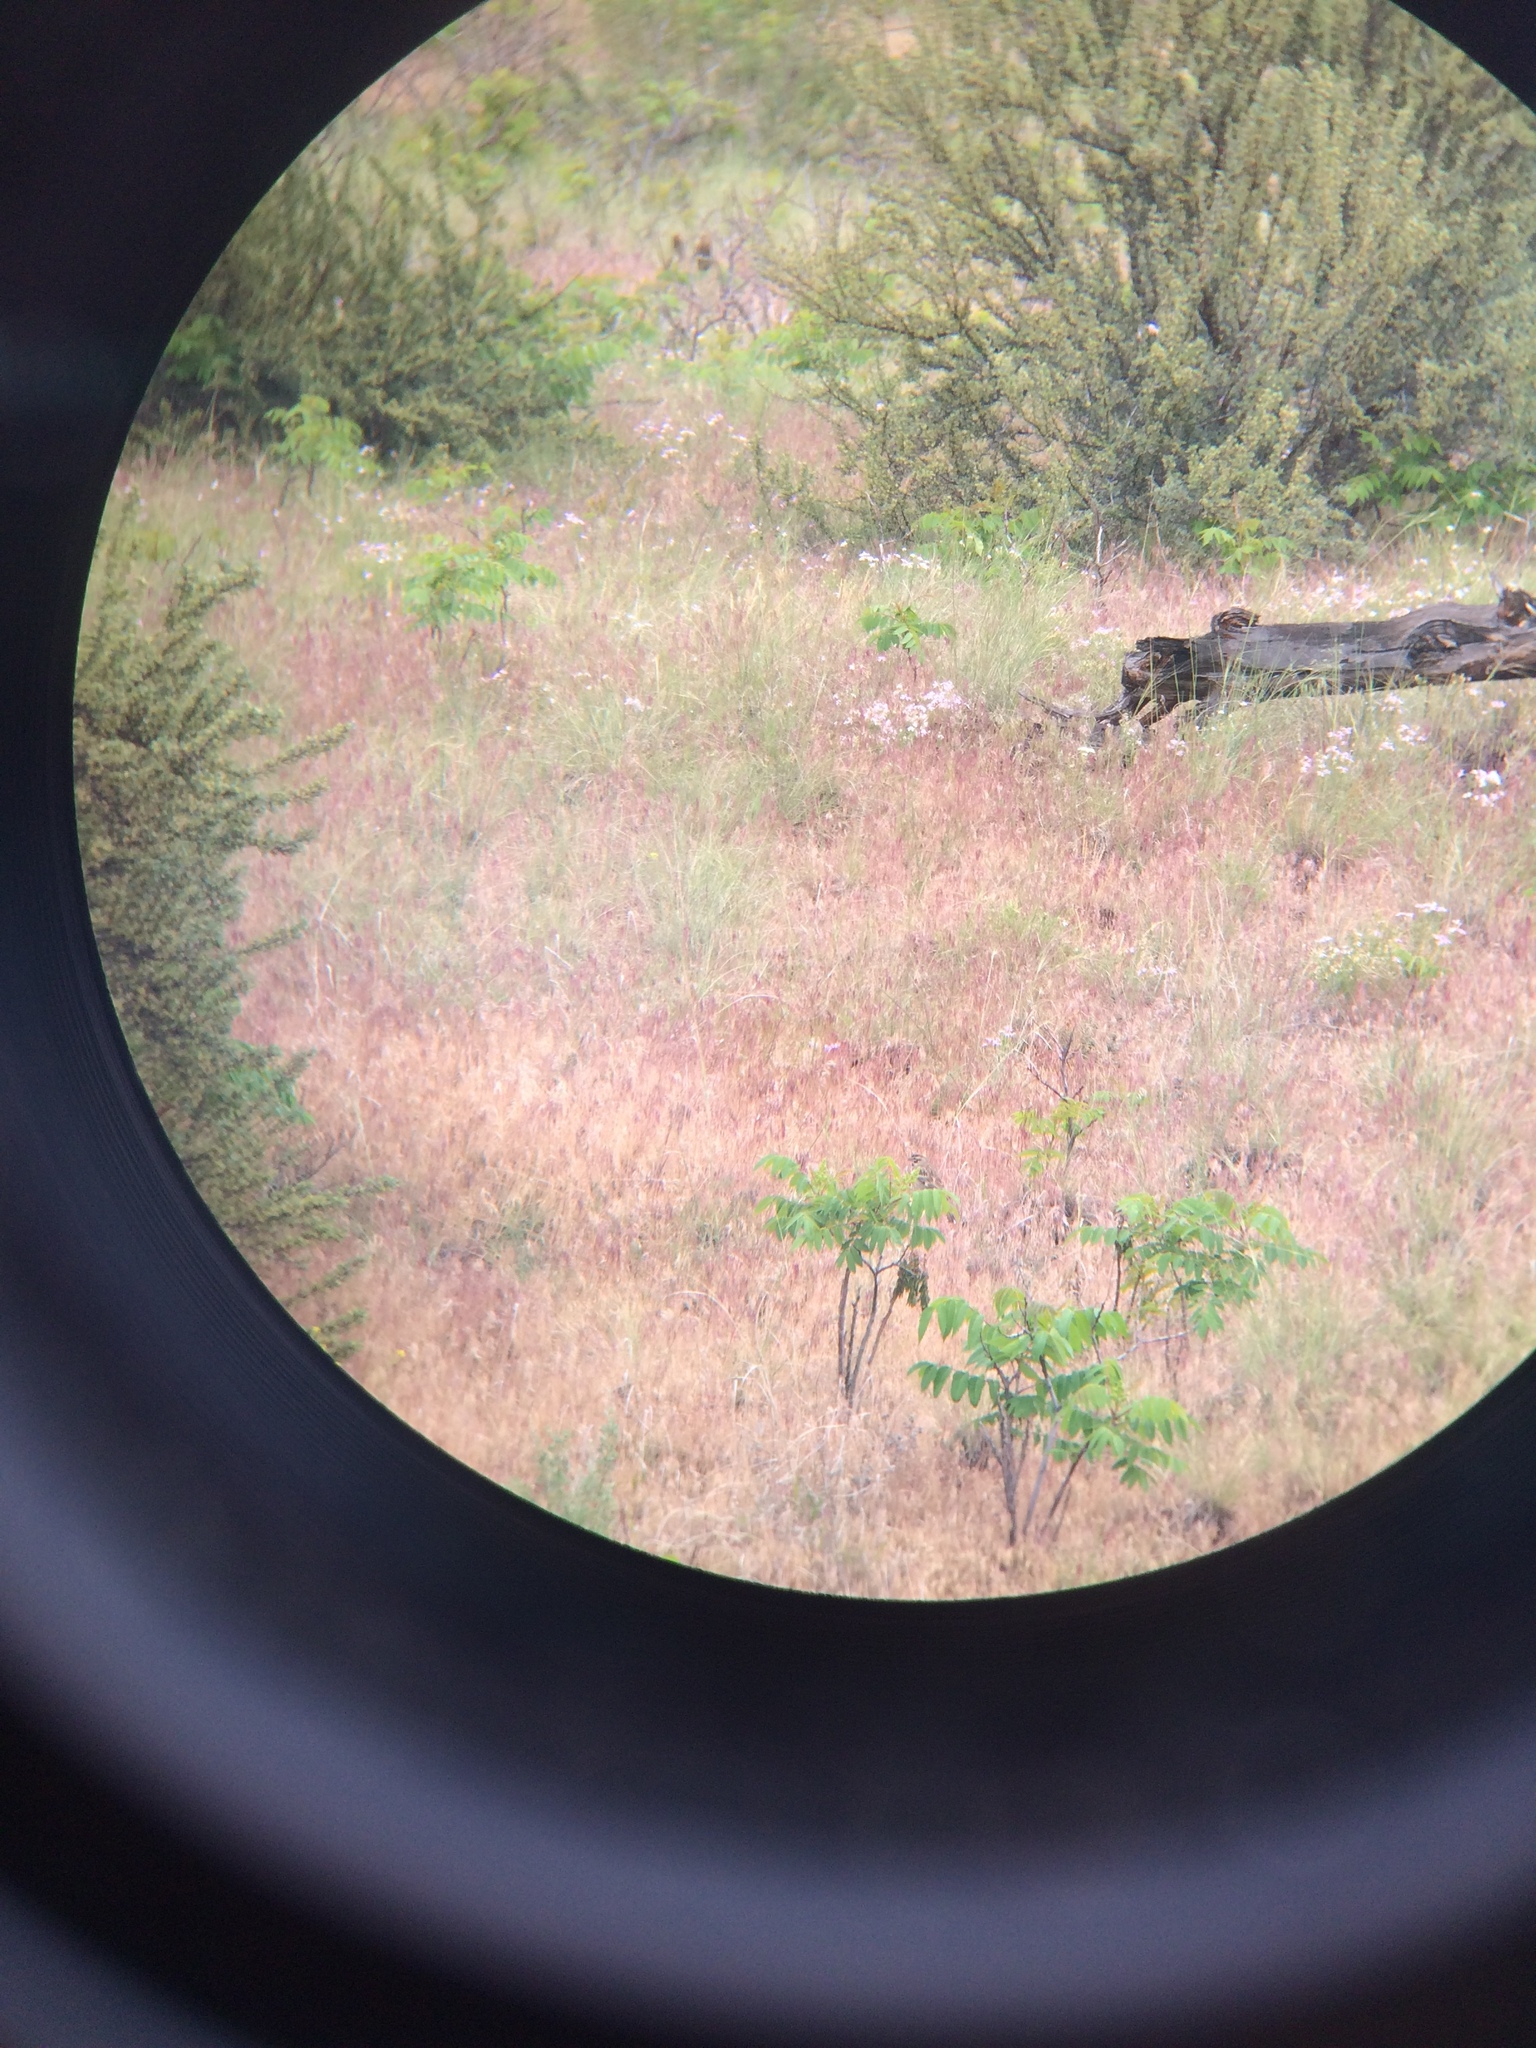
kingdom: Animalia
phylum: Chordata
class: Aves
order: Passeriformes
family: Passerellidae
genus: Chondestes
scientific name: Chondestes grammacus
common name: Lark sparrow
